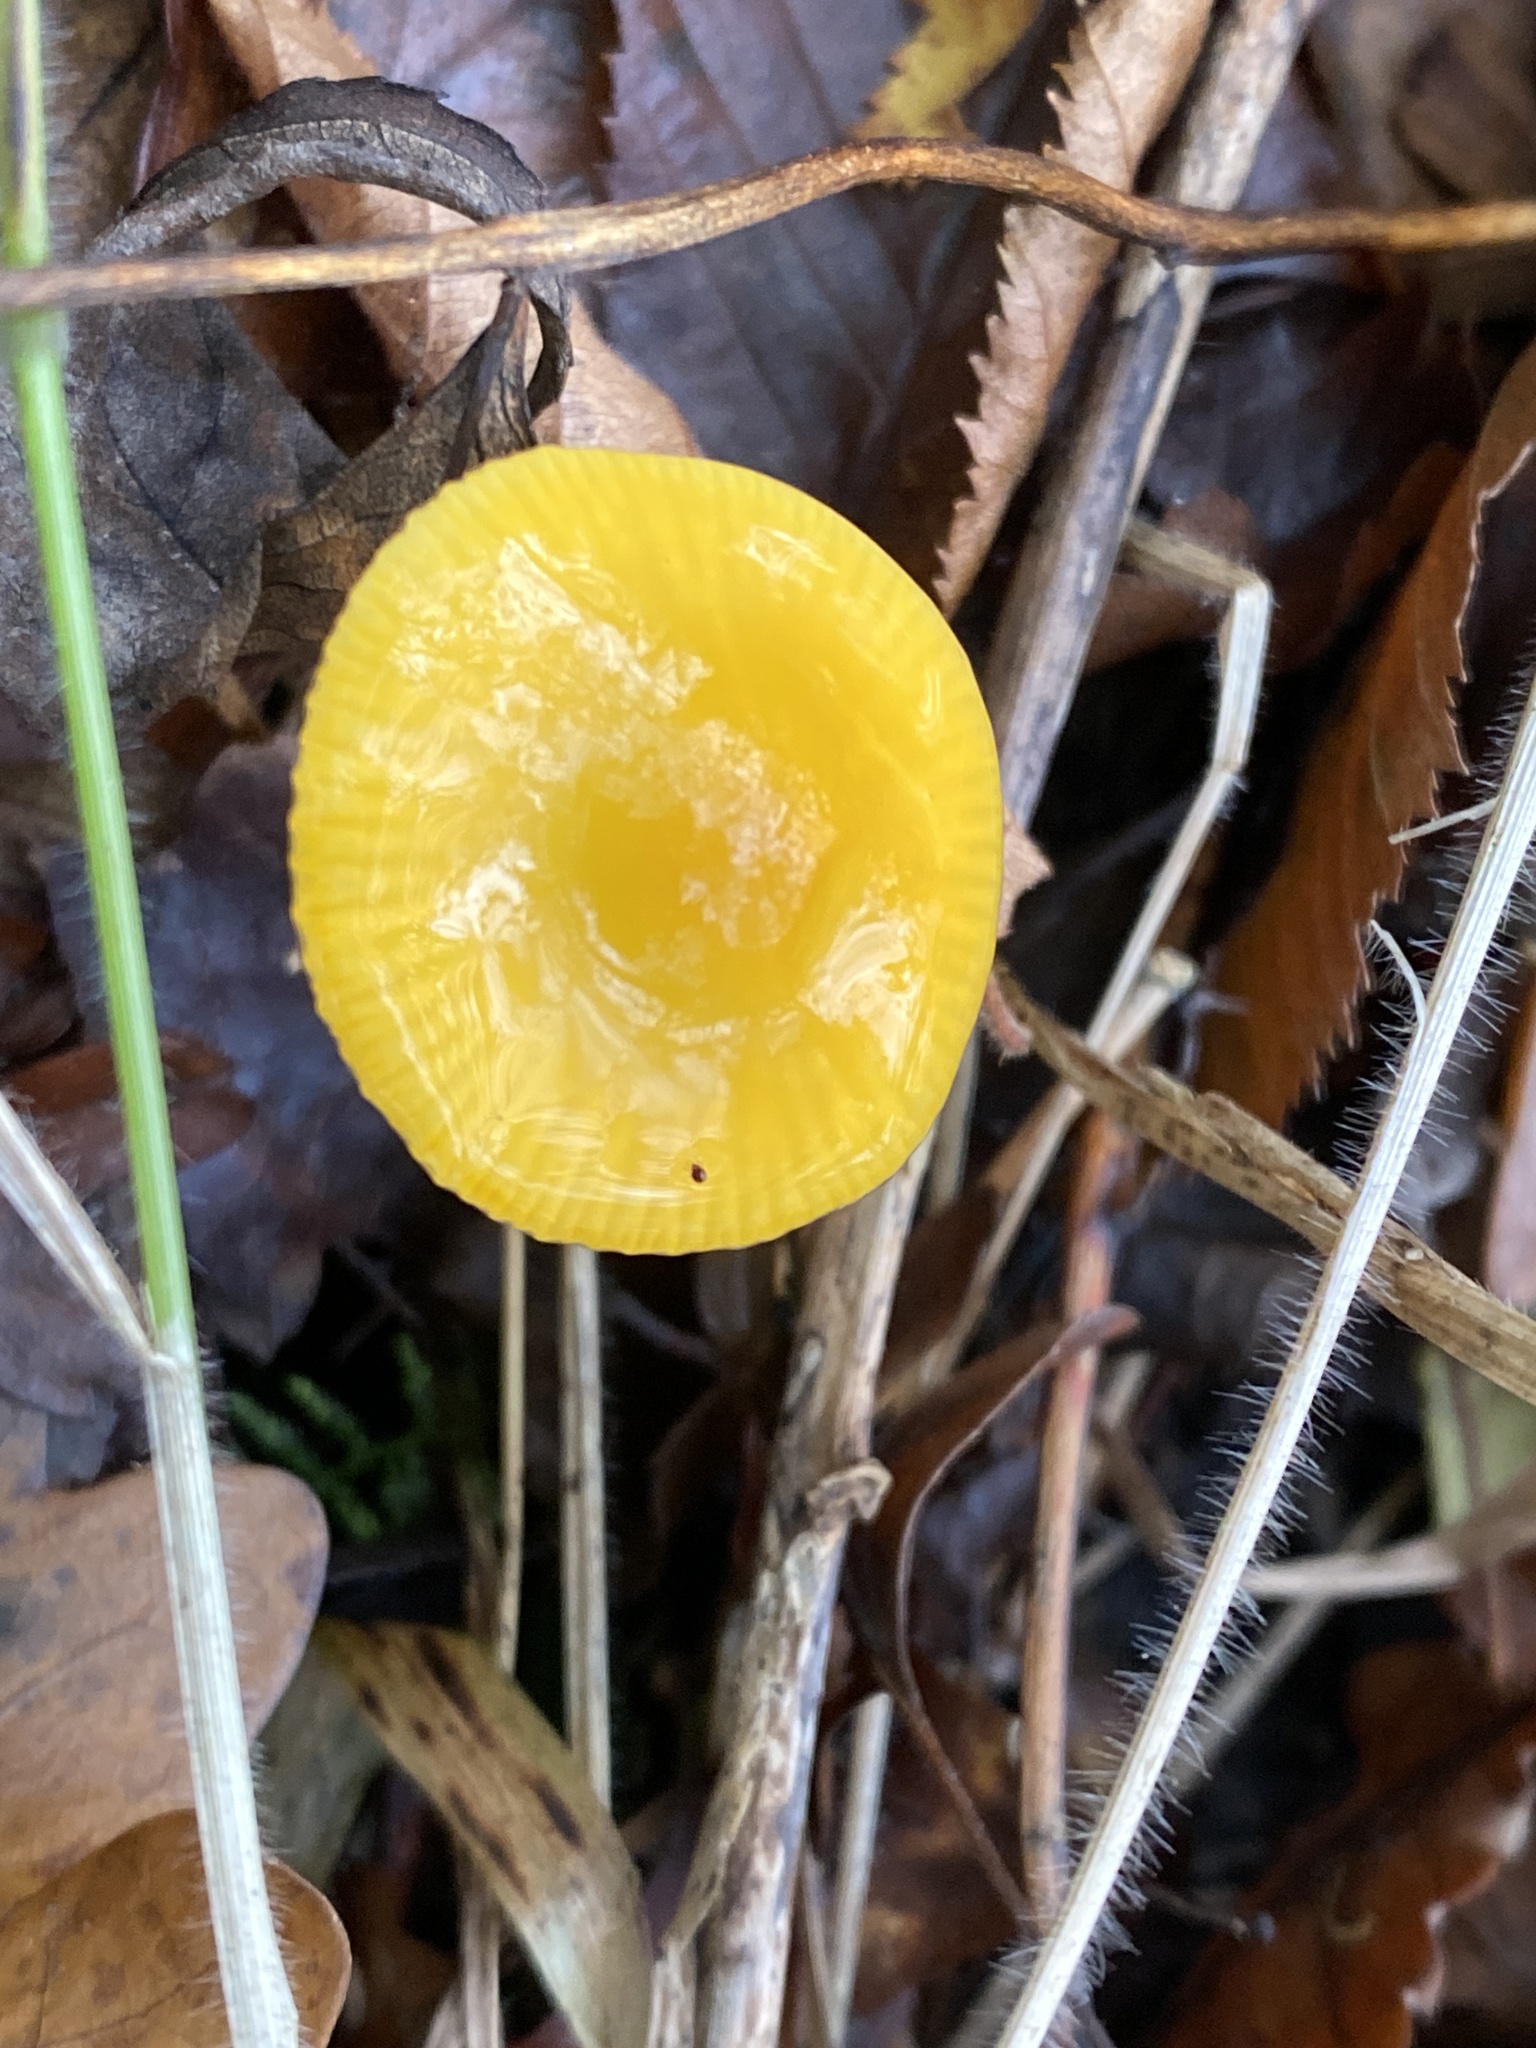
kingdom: Fungi
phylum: Basidiomycota
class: Agaricomycetes
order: Agaricales
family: Hygrophoraceae
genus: Gliophorus
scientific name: Gliophorus psittacinus
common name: Parrot wax-cap
